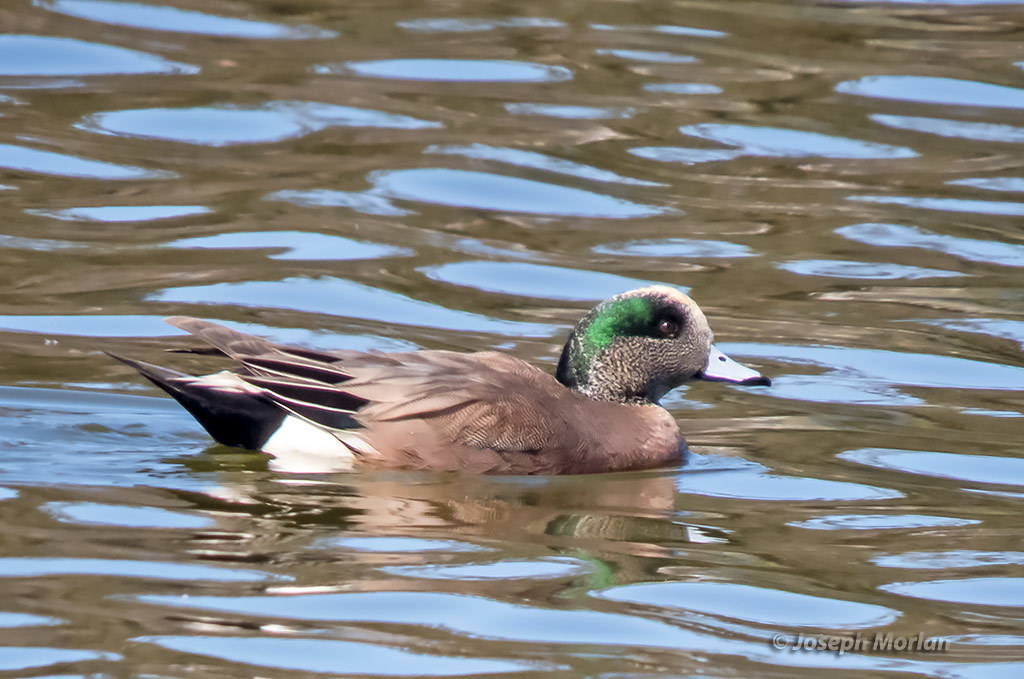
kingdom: Animalia
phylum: Chordata
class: Aves
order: Anseriformes
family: Anatidae
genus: Mareca
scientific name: Mareca americana
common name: American wigeon
